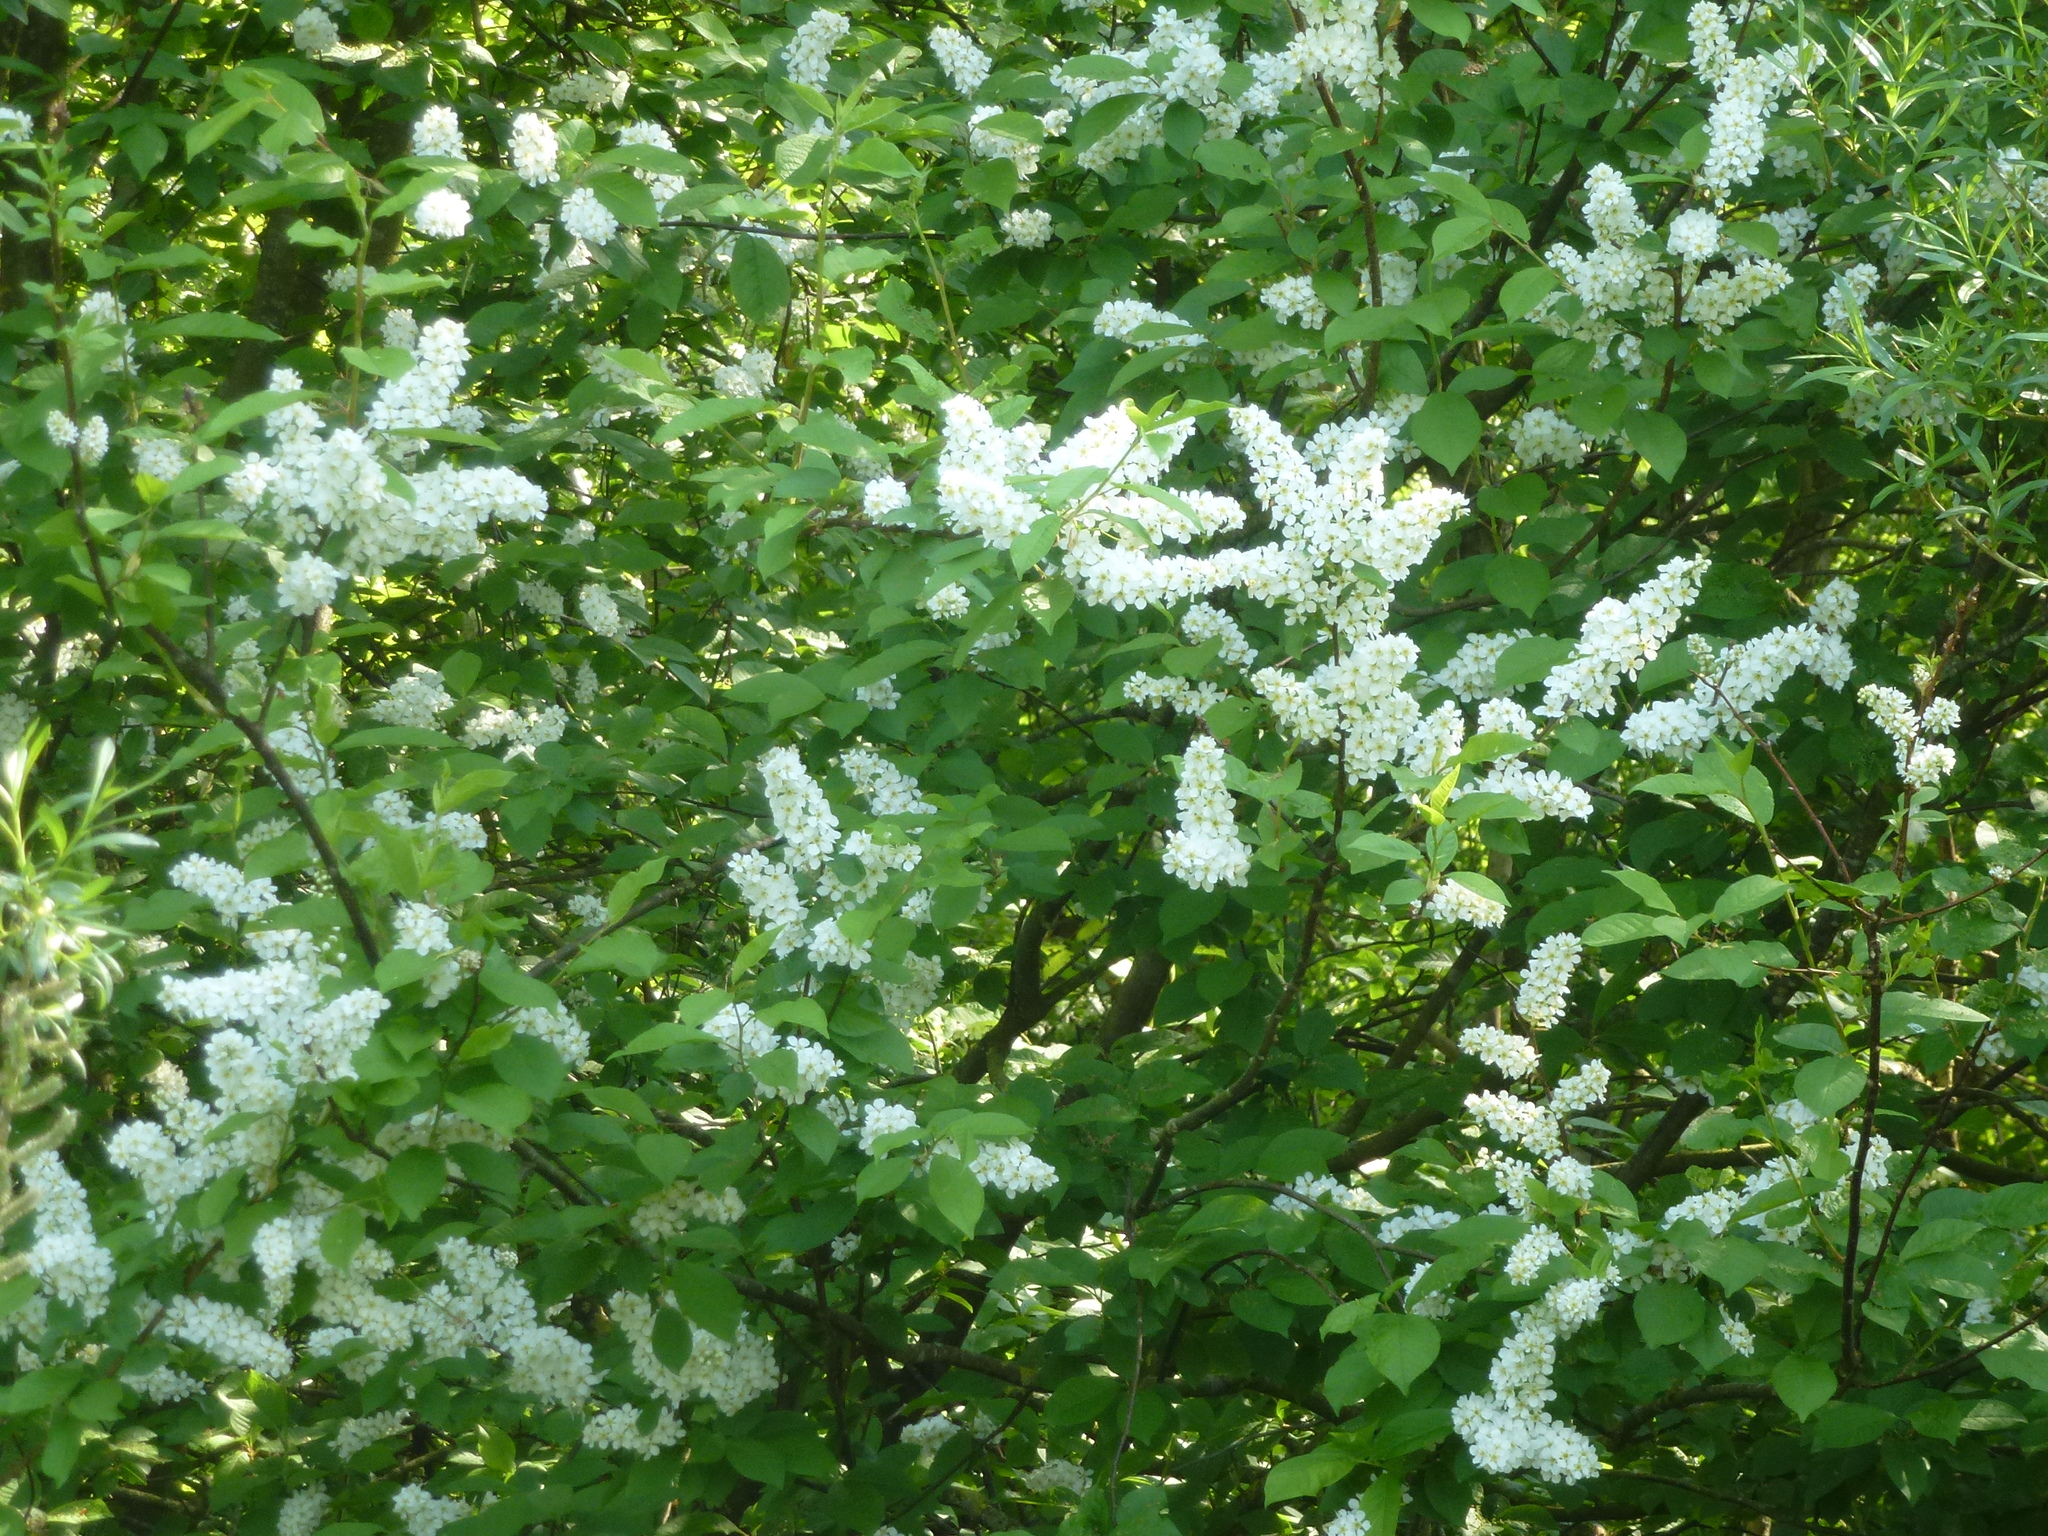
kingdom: Plantae
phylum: Tracheophyta
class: Magnoliopsida
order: Rosales
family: Rosaceae
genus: Prunus
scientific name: Prunus padus
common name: Bird cherry
